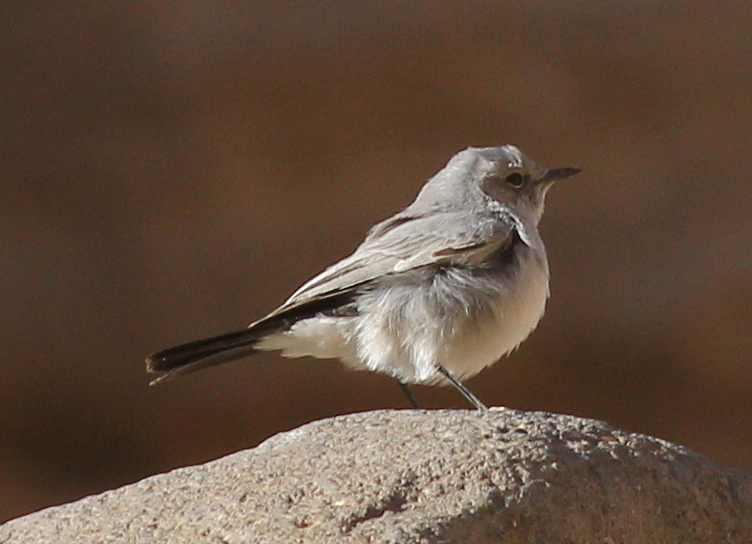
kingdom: Animalia
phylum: Chordata
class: Aves
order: Passeriformes
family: Muscicapidae
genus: Oenanthe
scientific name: Oenanthe melanura
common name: Blackstart
